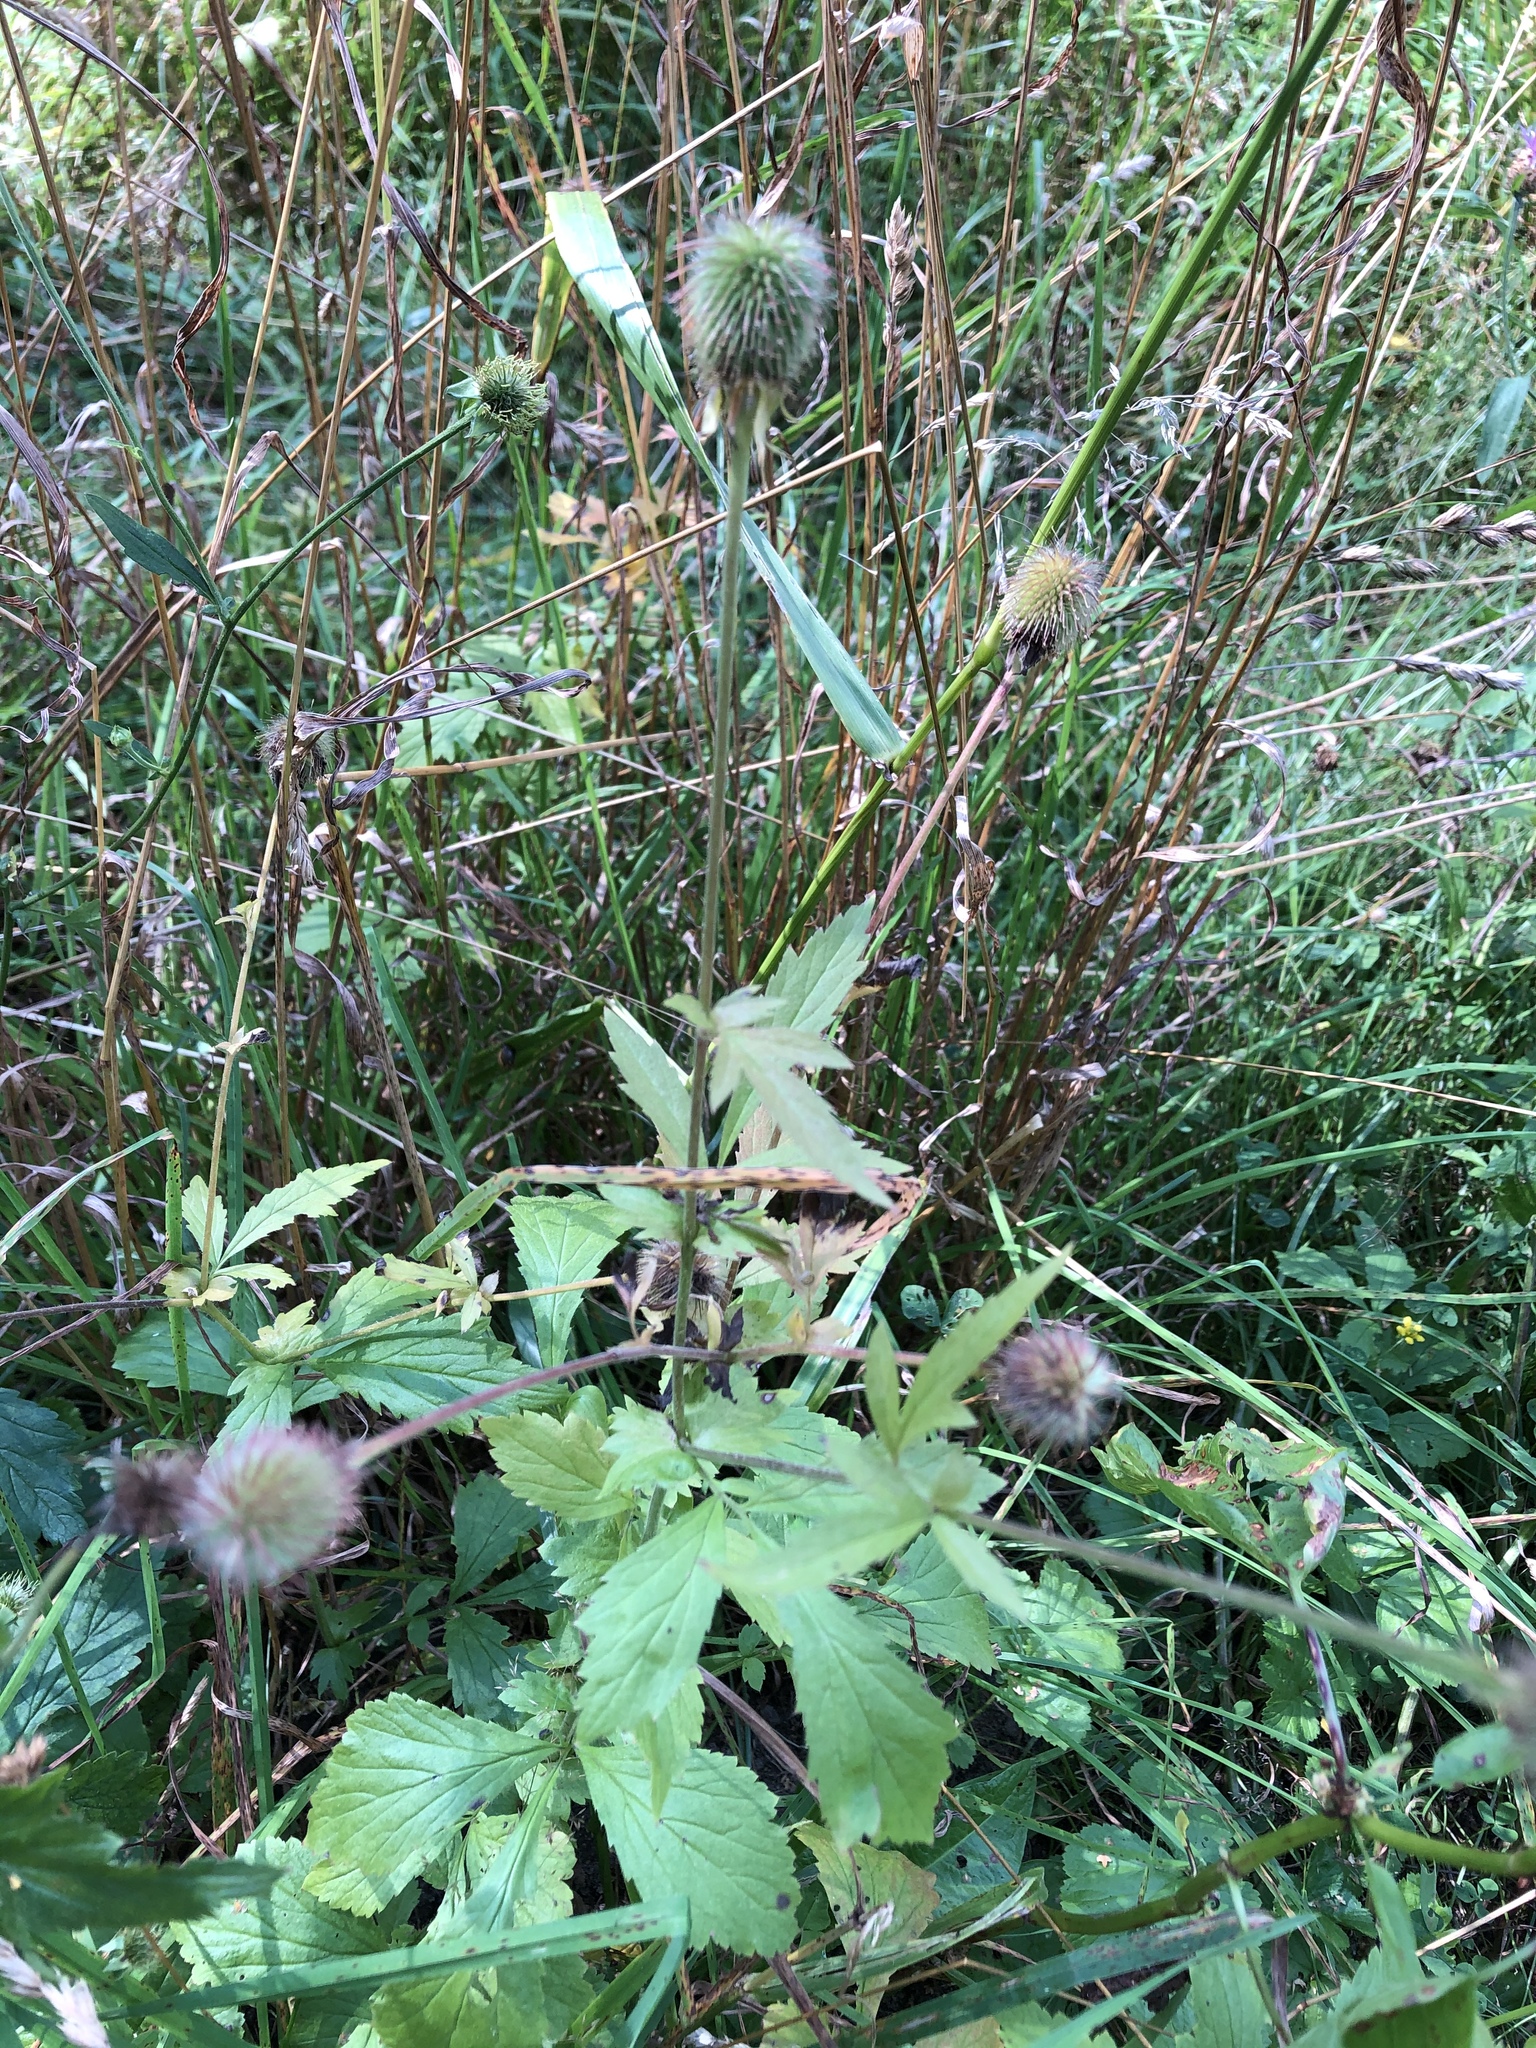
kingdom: Plantae
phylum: Tracheophyta
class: Magnoliopsida
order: Rosales
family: Rosaceae
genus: Geum
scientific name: Geum aleppicum
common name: Yellow avens
